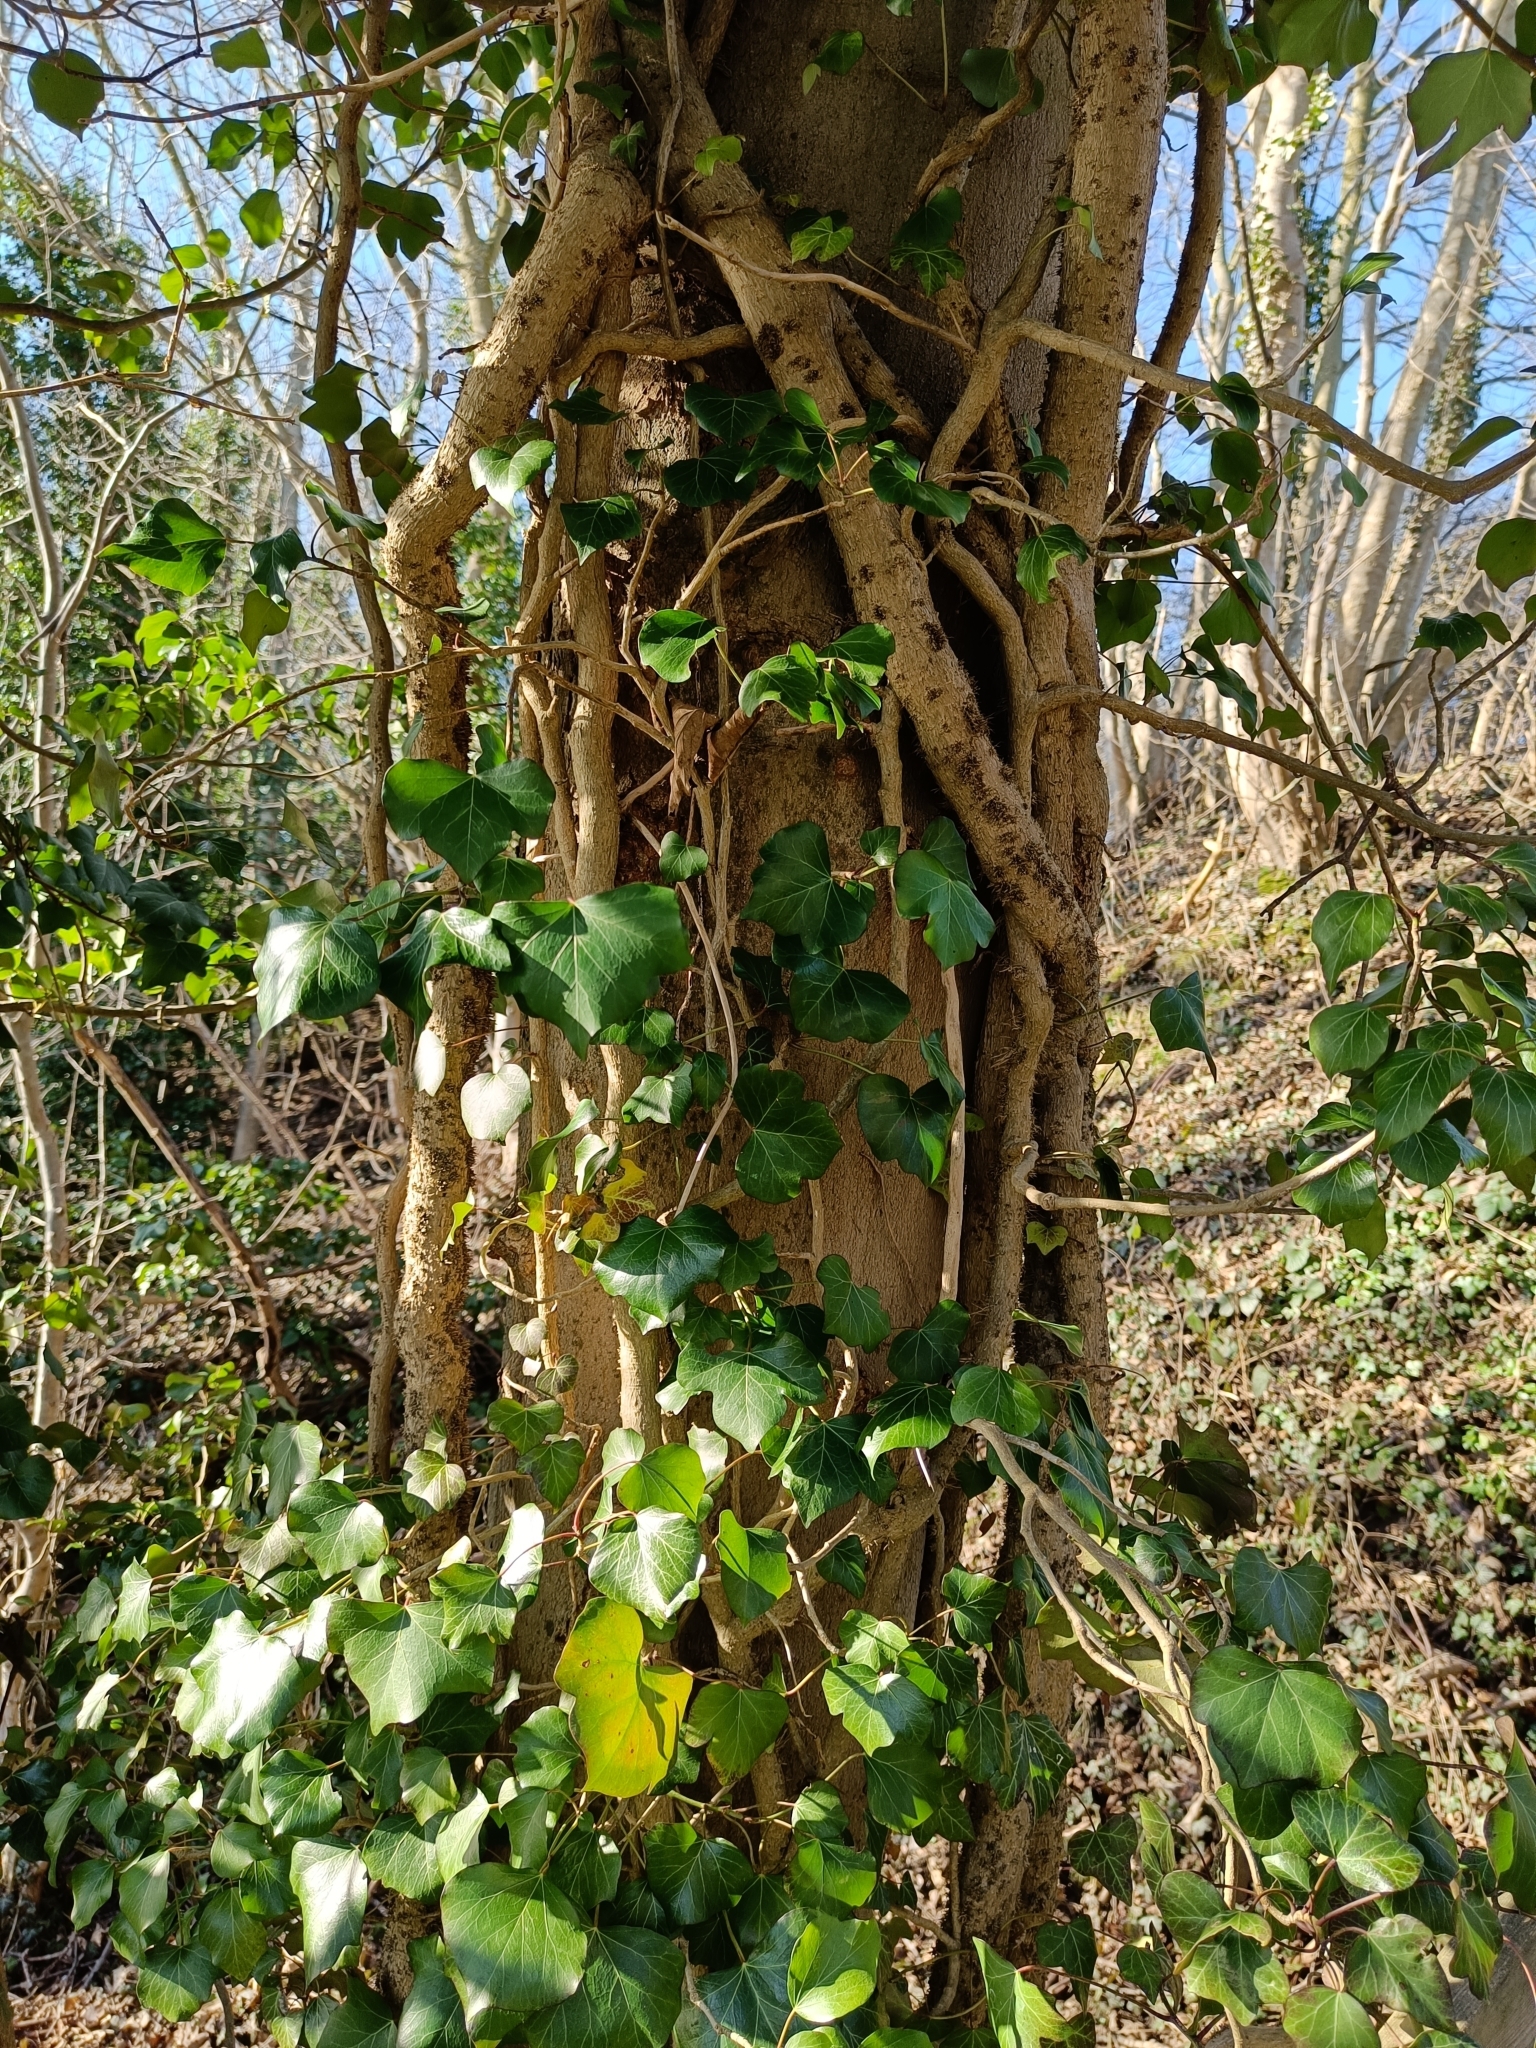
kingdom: Plantae
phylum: Tracheophyta
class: Magnoliopsida
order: Apiales
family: Araliaceae
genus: Hedera
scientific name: Hedera helix
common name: Ivy
